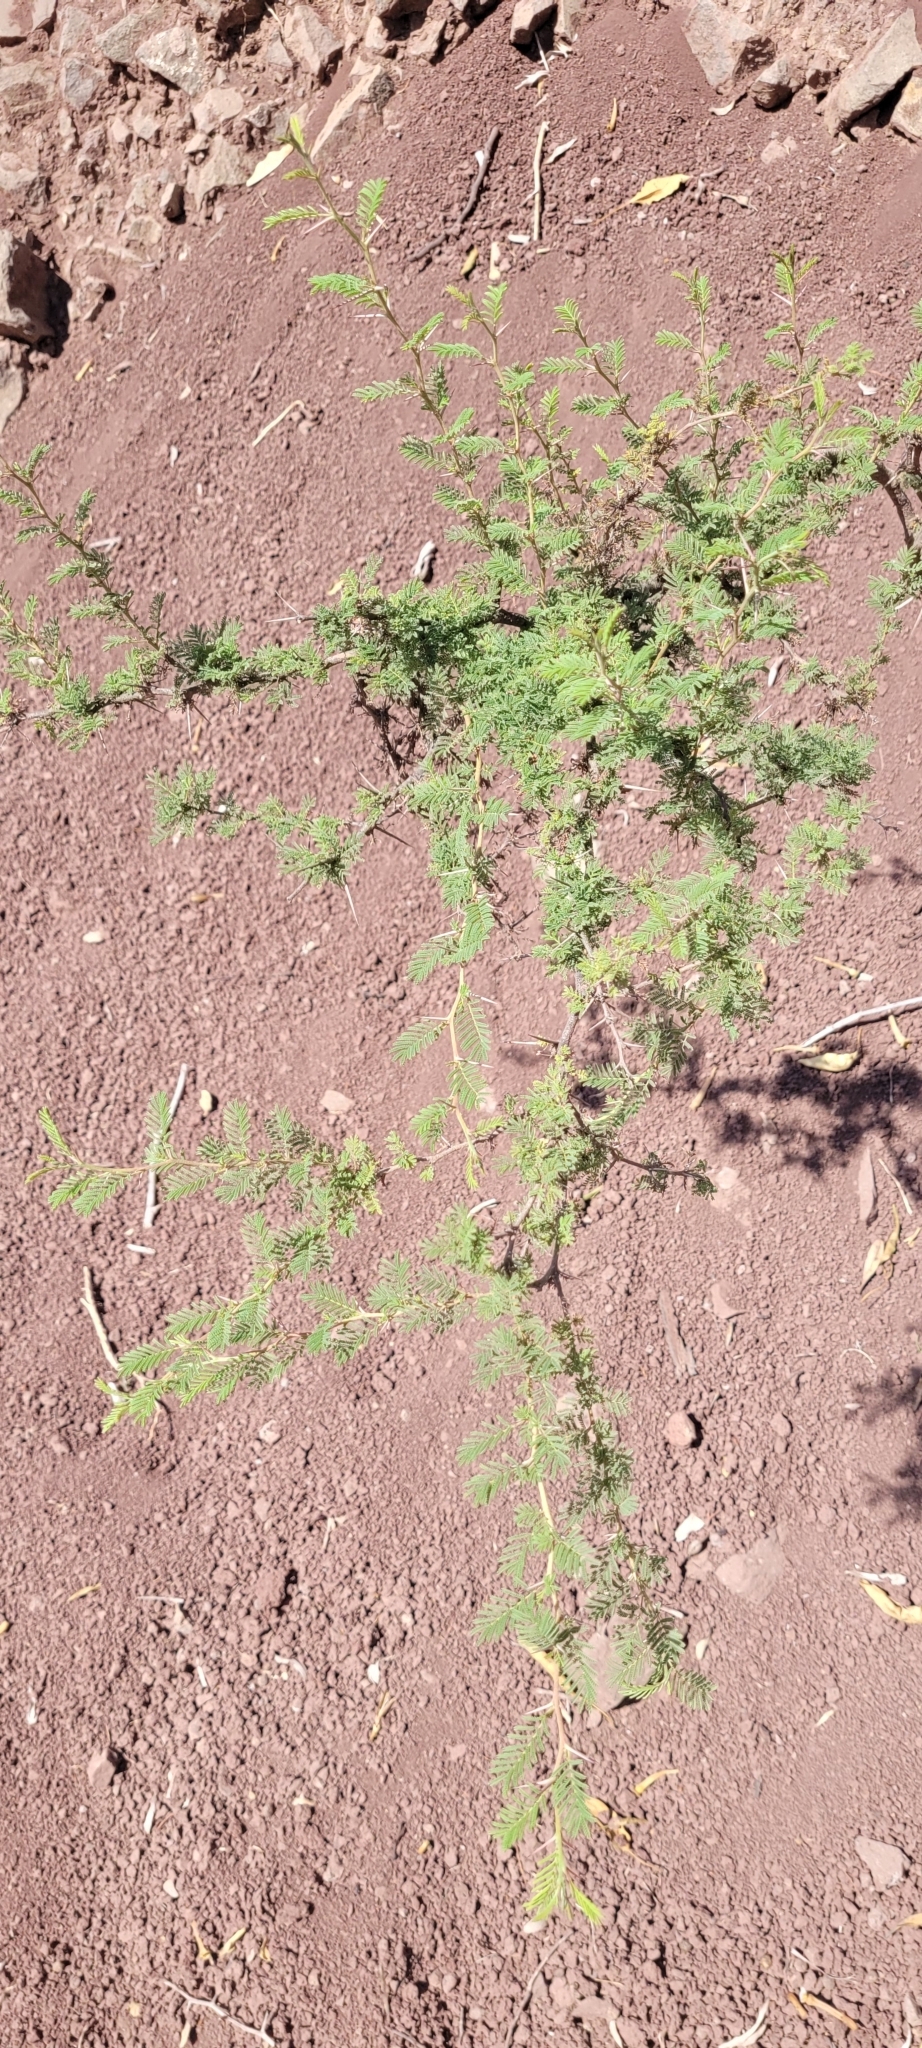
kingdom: Plantae
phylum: Tracheophyta
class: Magnoliopsida
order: Fabales
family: Fabaceae
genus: Vachellia
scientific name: Vachellia caven
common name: Roman cassie
